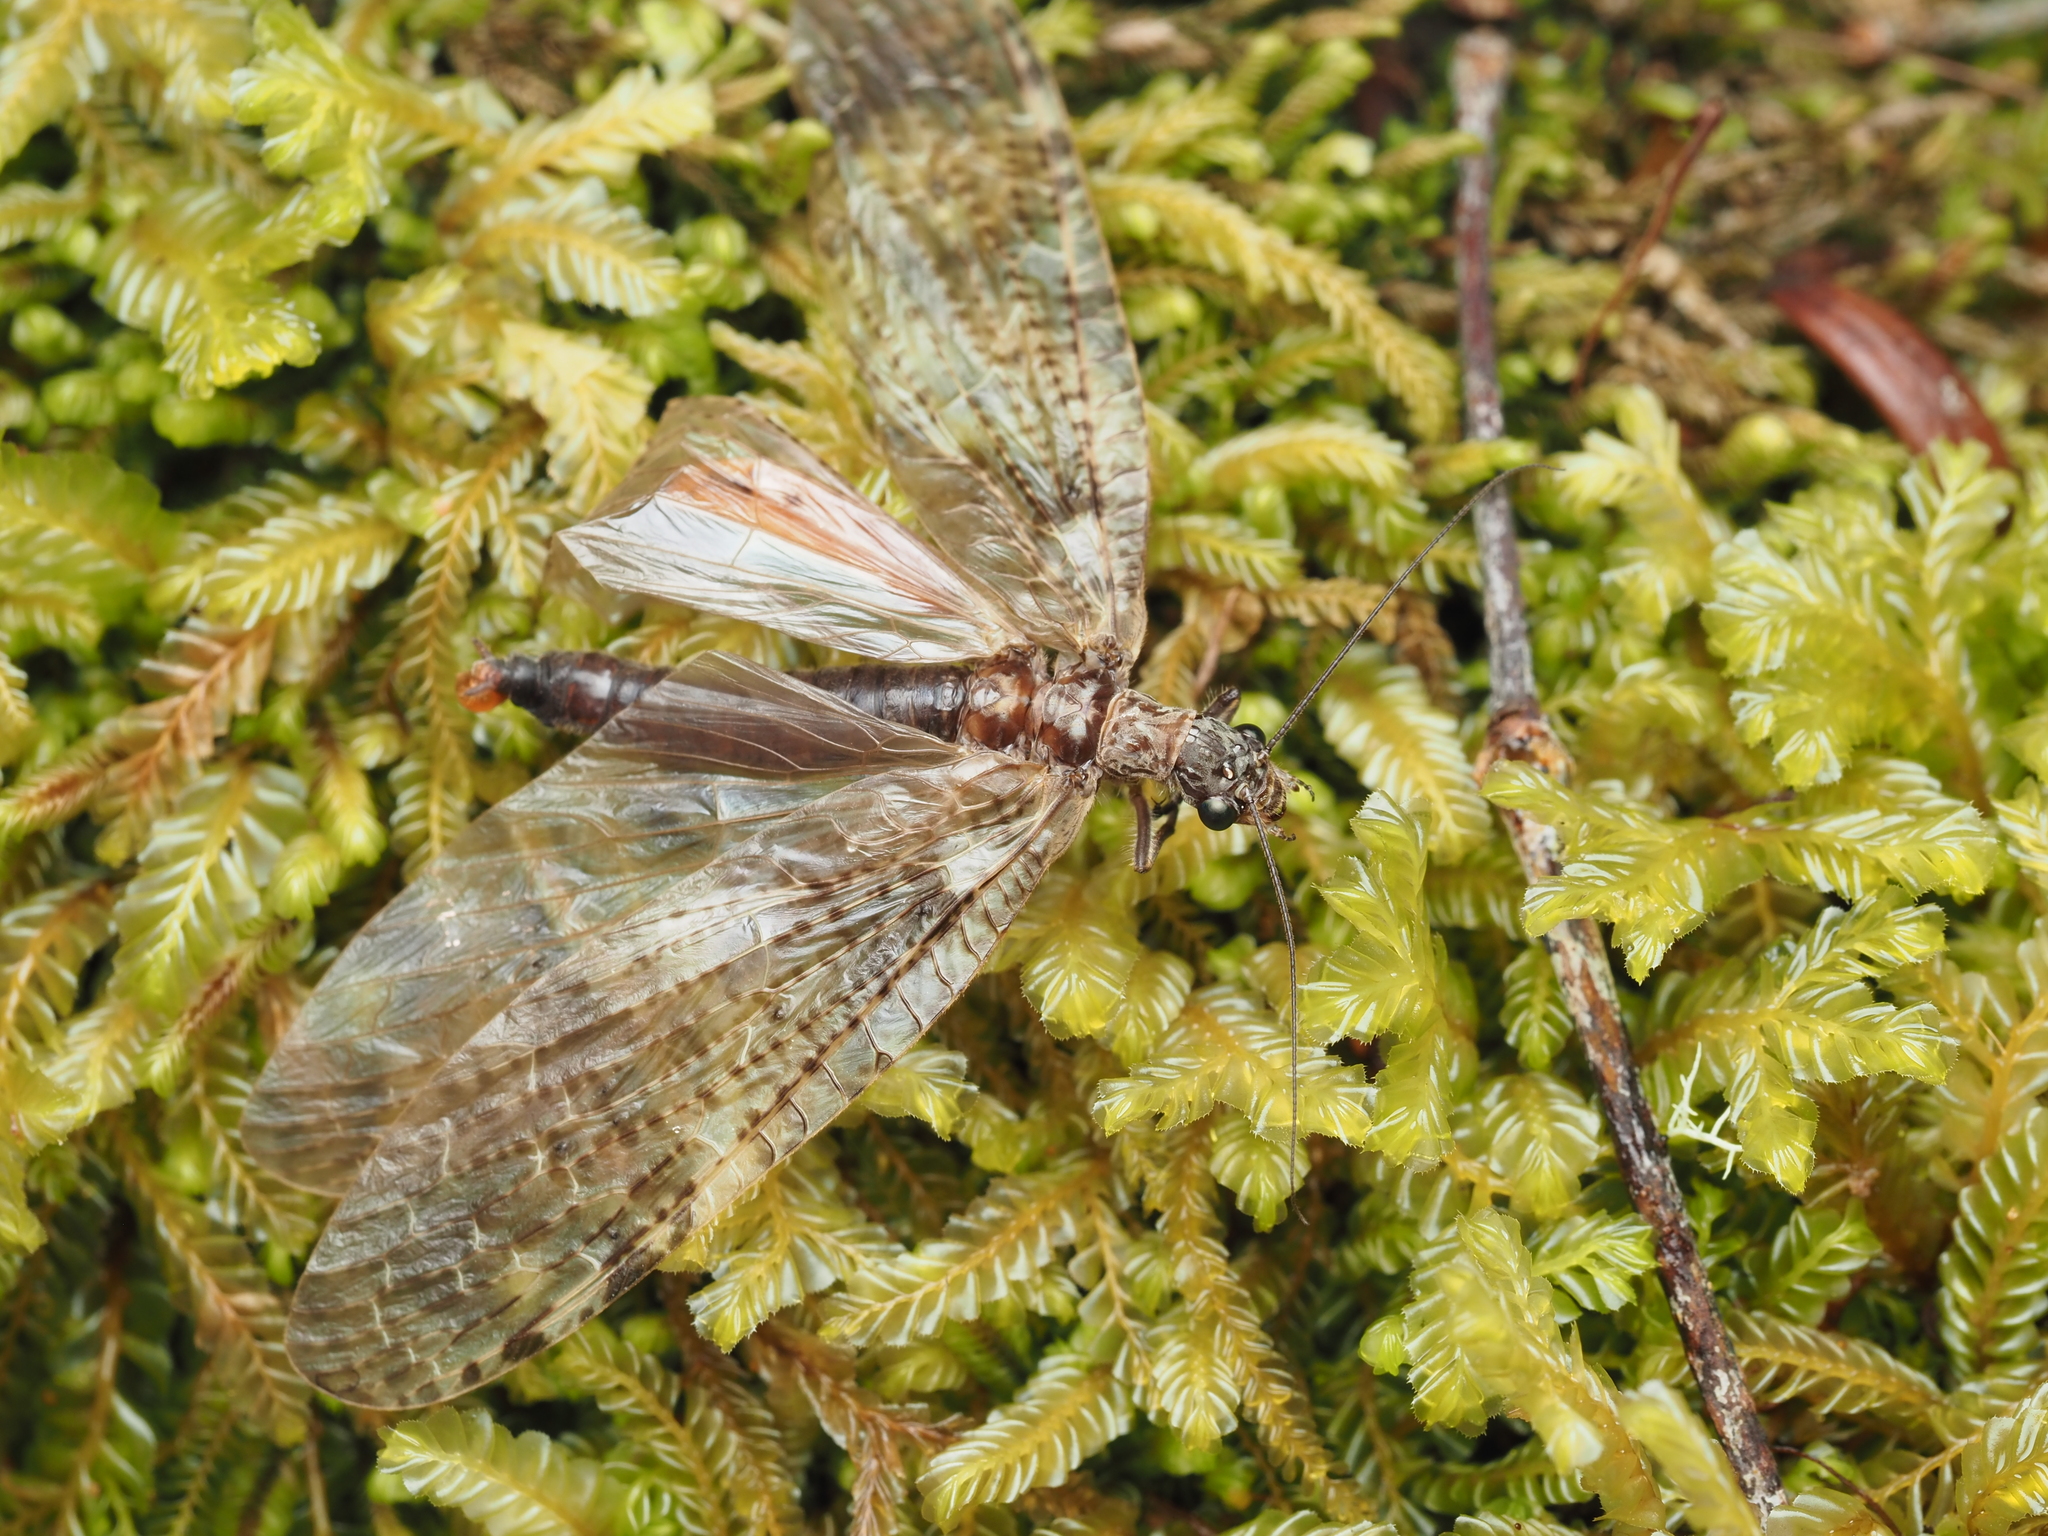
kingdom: Animalia
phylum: Arthropoda
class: Insecta
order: Megaloptera
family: Corydalidae
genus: Archichauliodes
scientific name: Archichauliodes diversus
